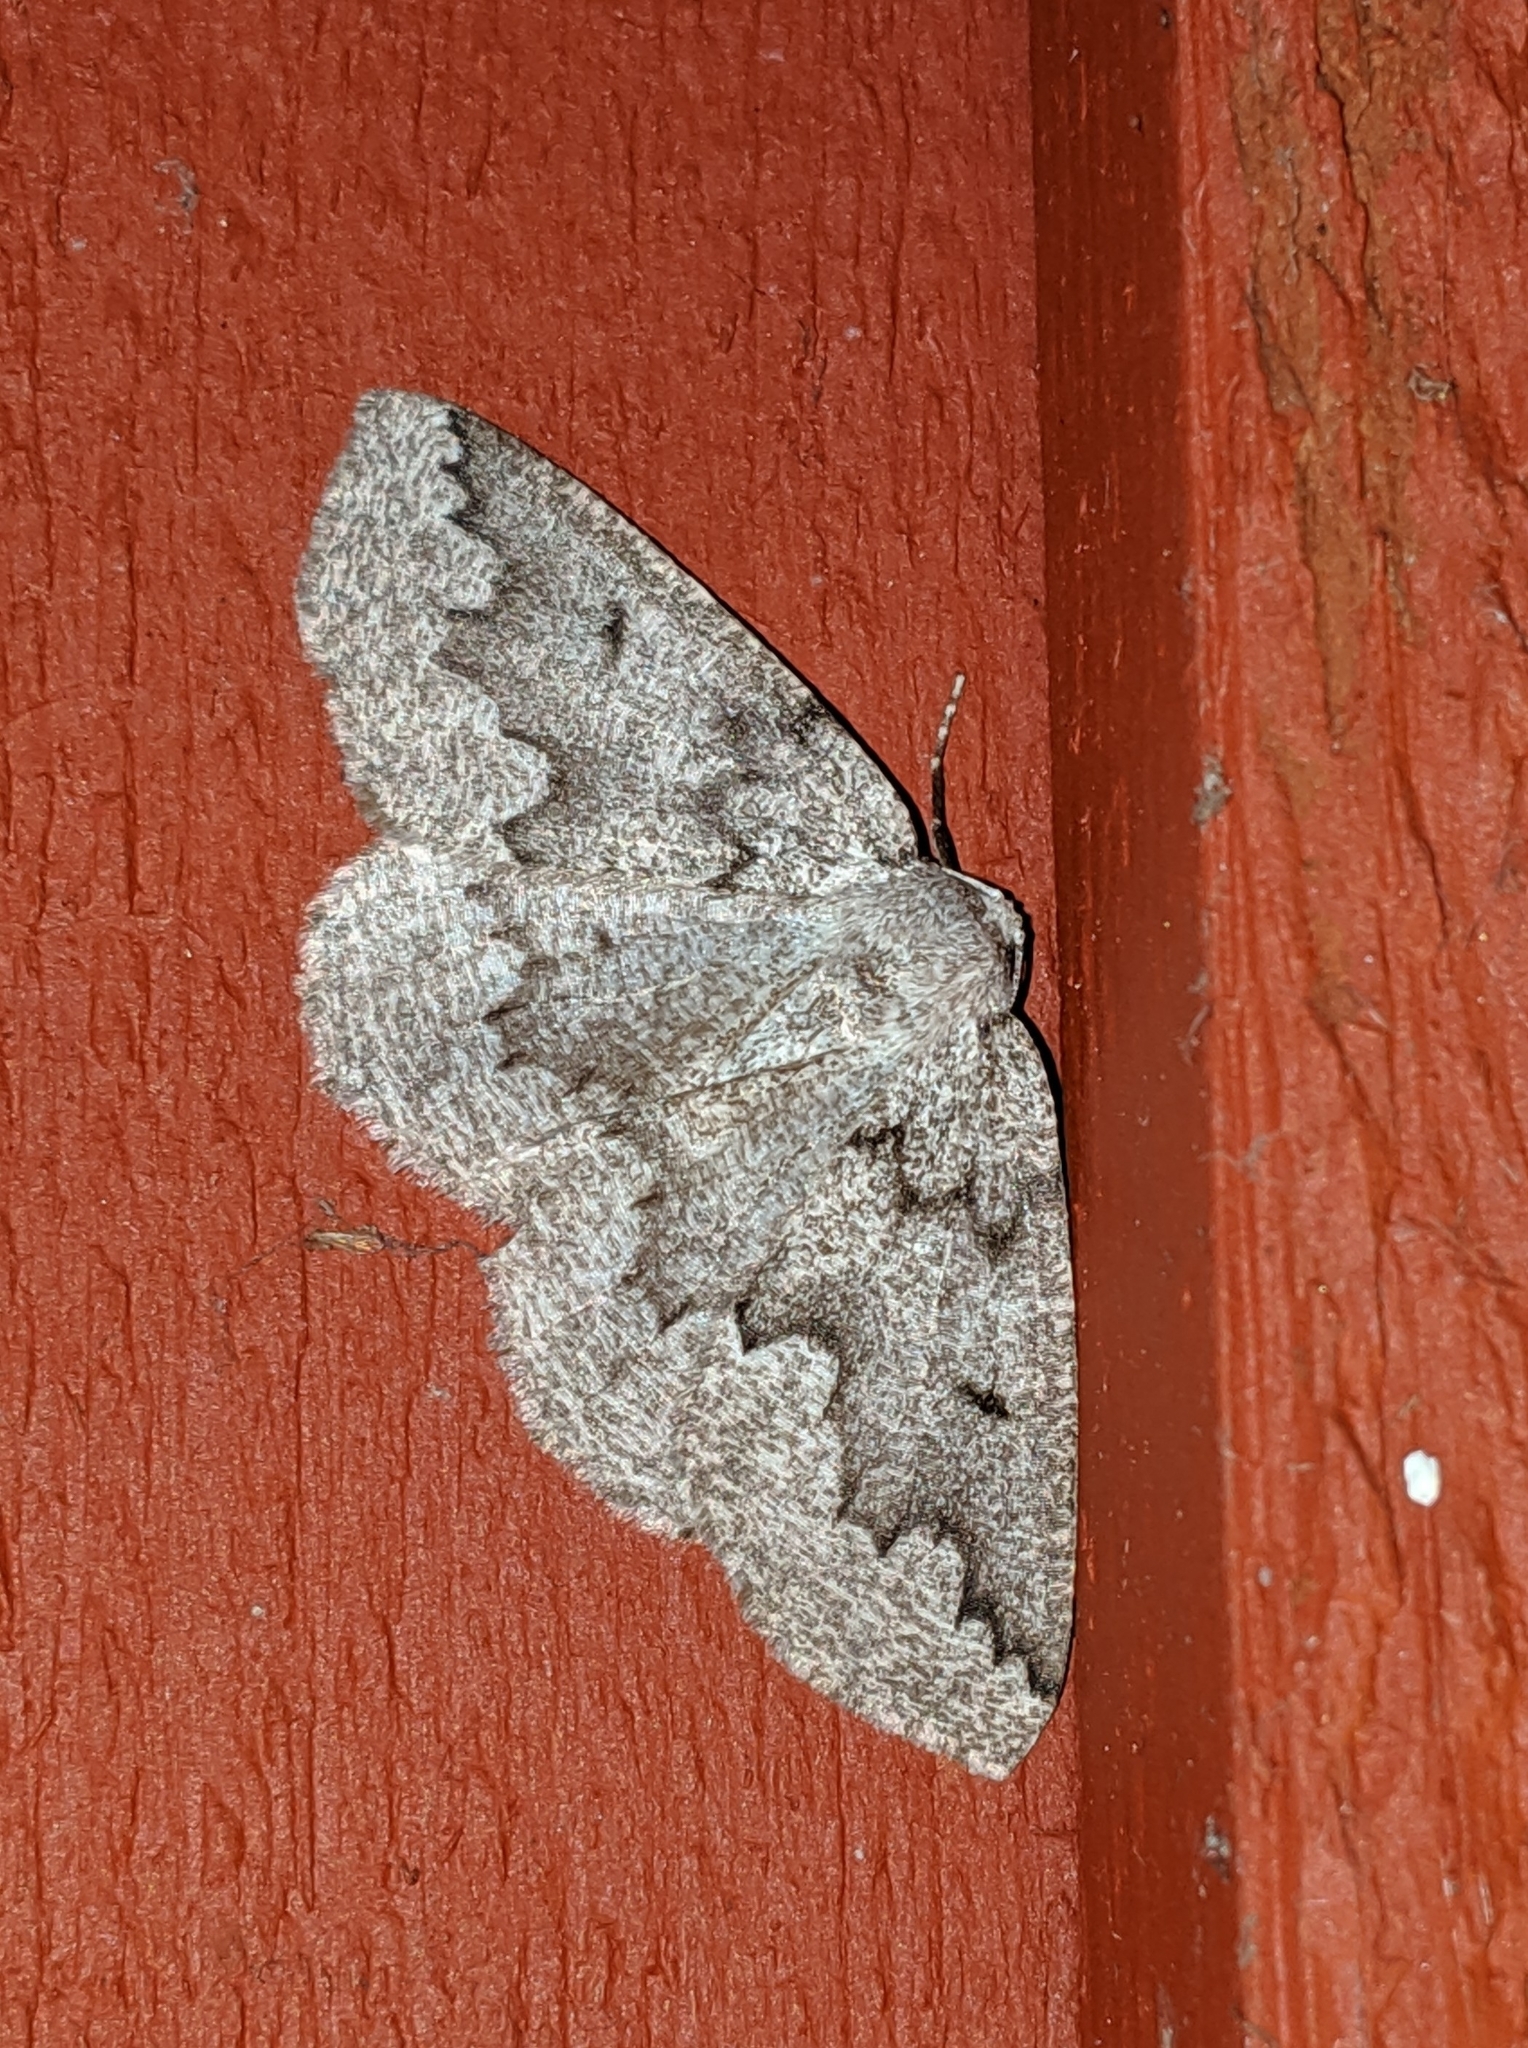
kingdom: Animalia
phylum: Arthropoda
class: Insecta
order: Lepidoptera
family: Geometridae
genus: Sabulodes
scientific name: Sabulodes
